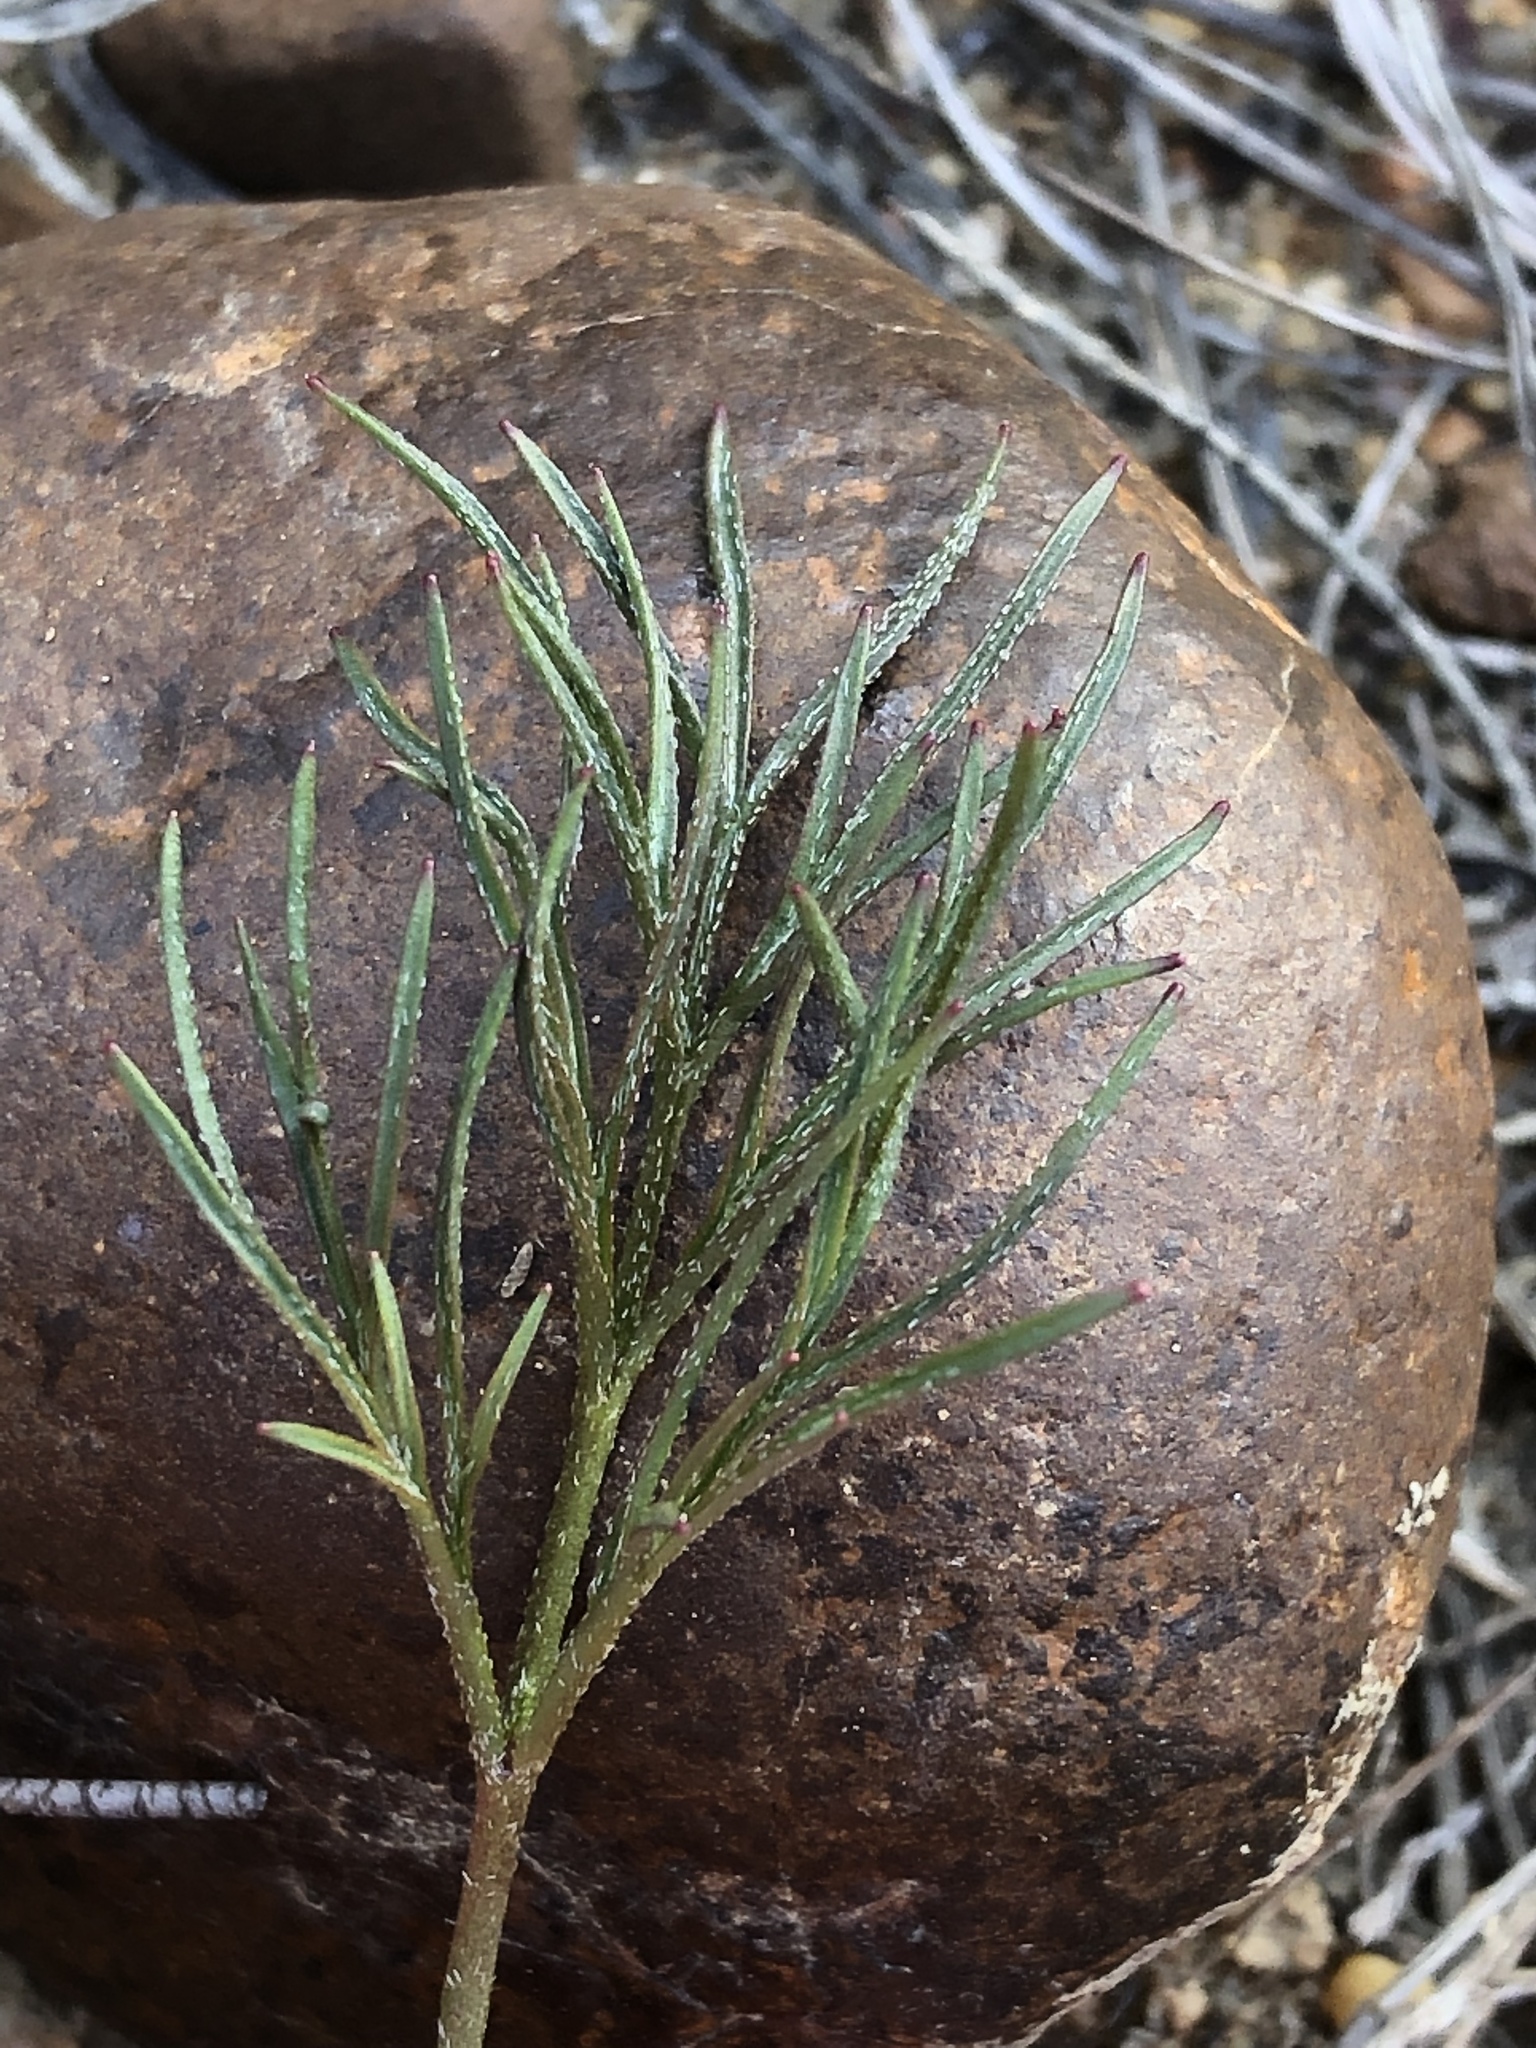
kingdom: Plantae
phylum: Tracheophyta
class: Magnoliopsida
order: Geraniales
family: Geraniaceae
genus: Pelargonium
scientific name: Pelargonium proliferum
